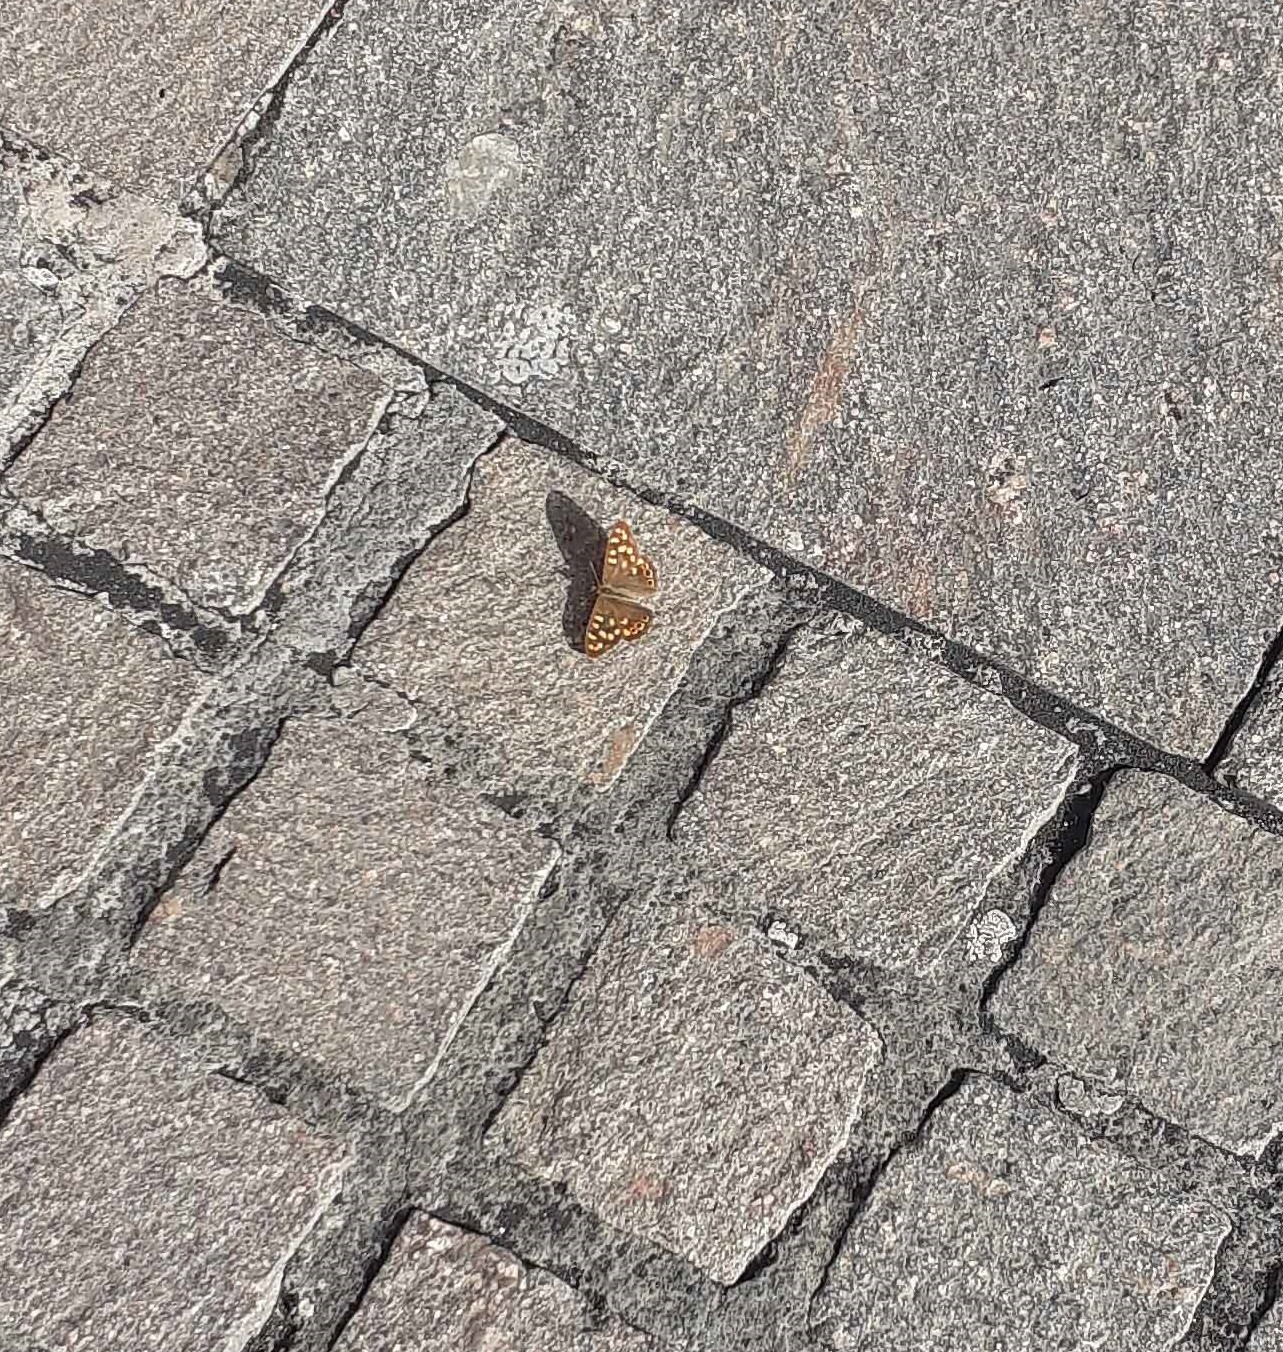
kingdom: Animalia
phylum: Arthropoda
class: Insecta
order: Lepidoptera
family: Nymphalidae
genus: Pararge
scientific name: Pararge aegeria
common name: Speckled wood
